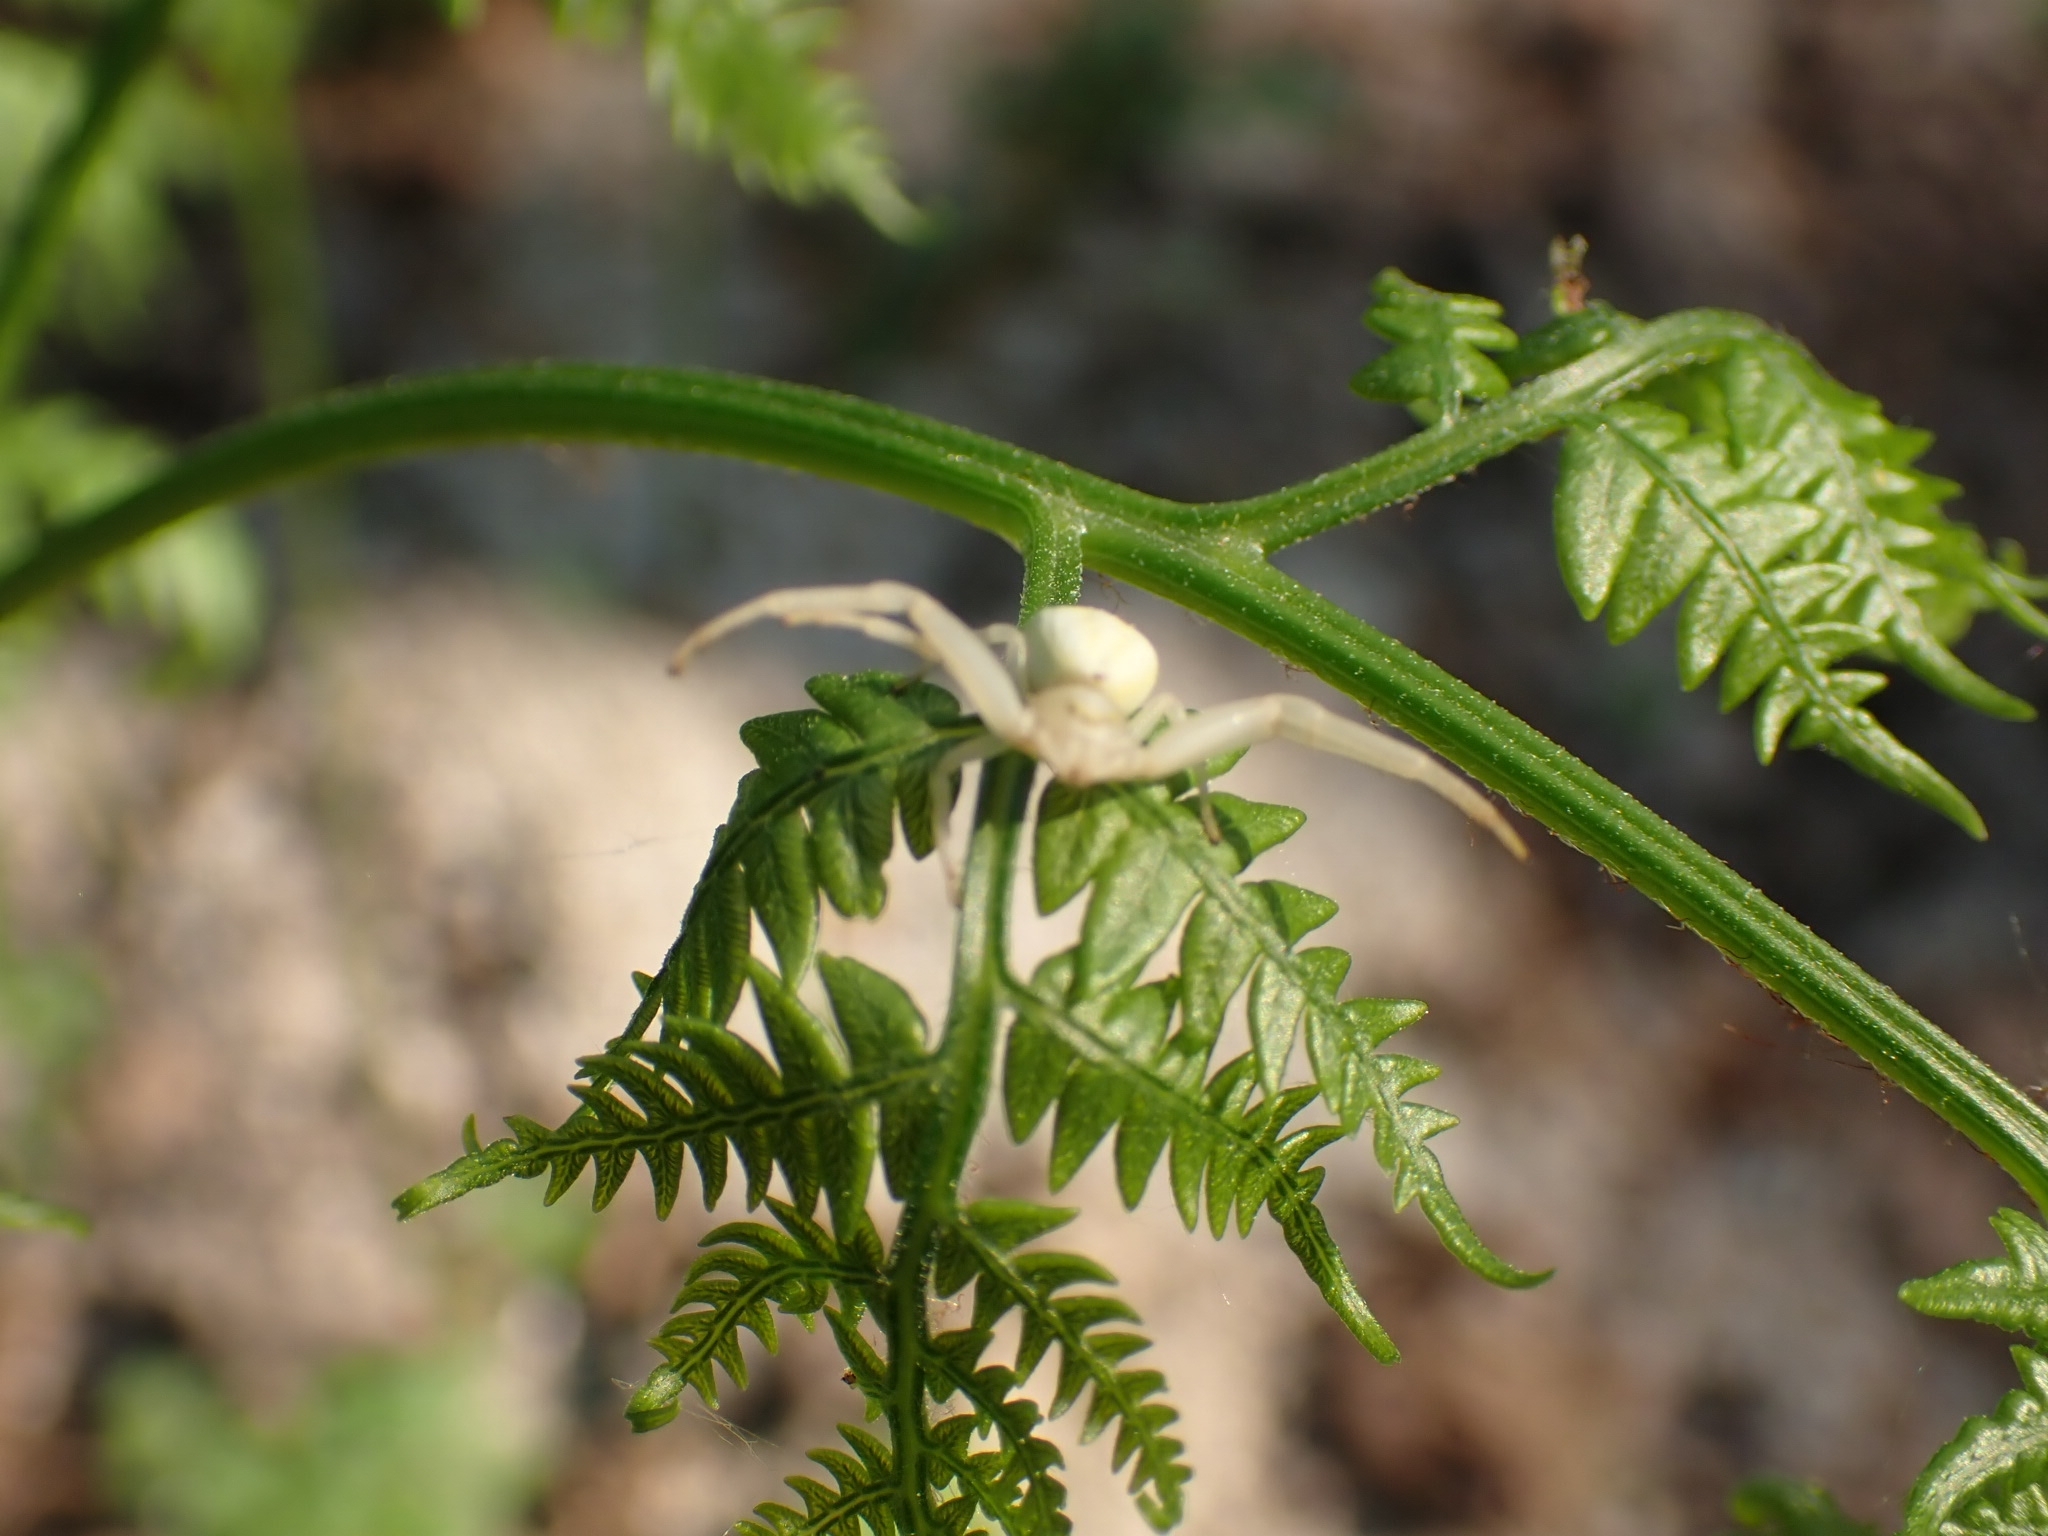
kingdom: Animalia
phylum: Arthropoda
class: Arachnida
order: Araneae
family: Thomisidae
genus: Misumena
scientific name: Misumena vatia
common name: Goldenrod crab spider
